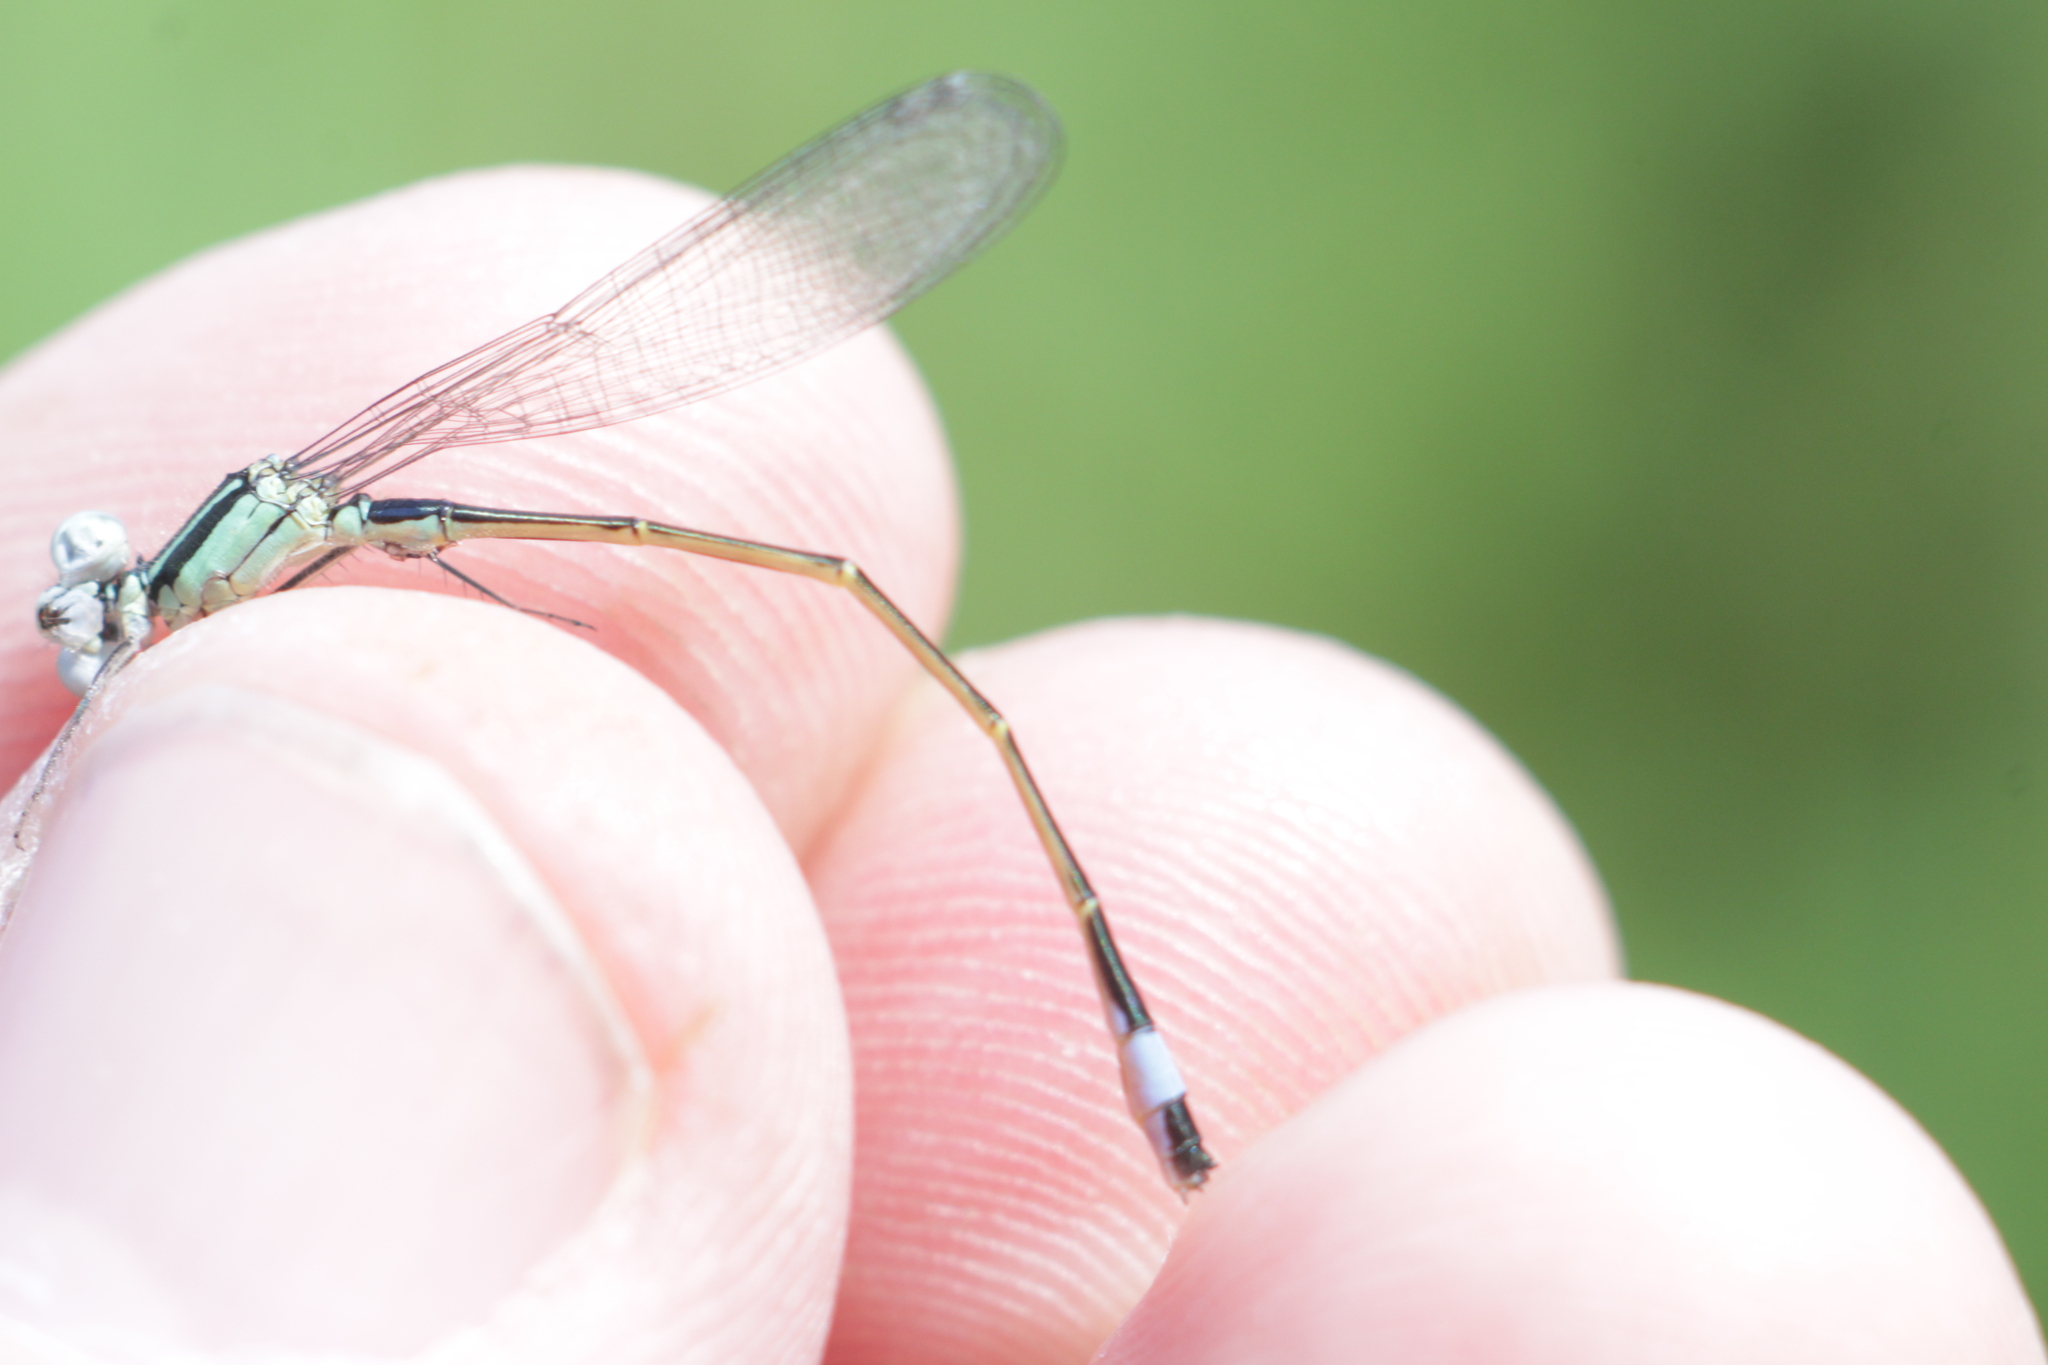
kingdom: Animalia
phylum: Arthropoda
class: Insecta
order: Odonata
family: Coenagrionidae
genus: Ischnura
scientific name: Ischnura elegans
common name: Blue-tailed damselfly
